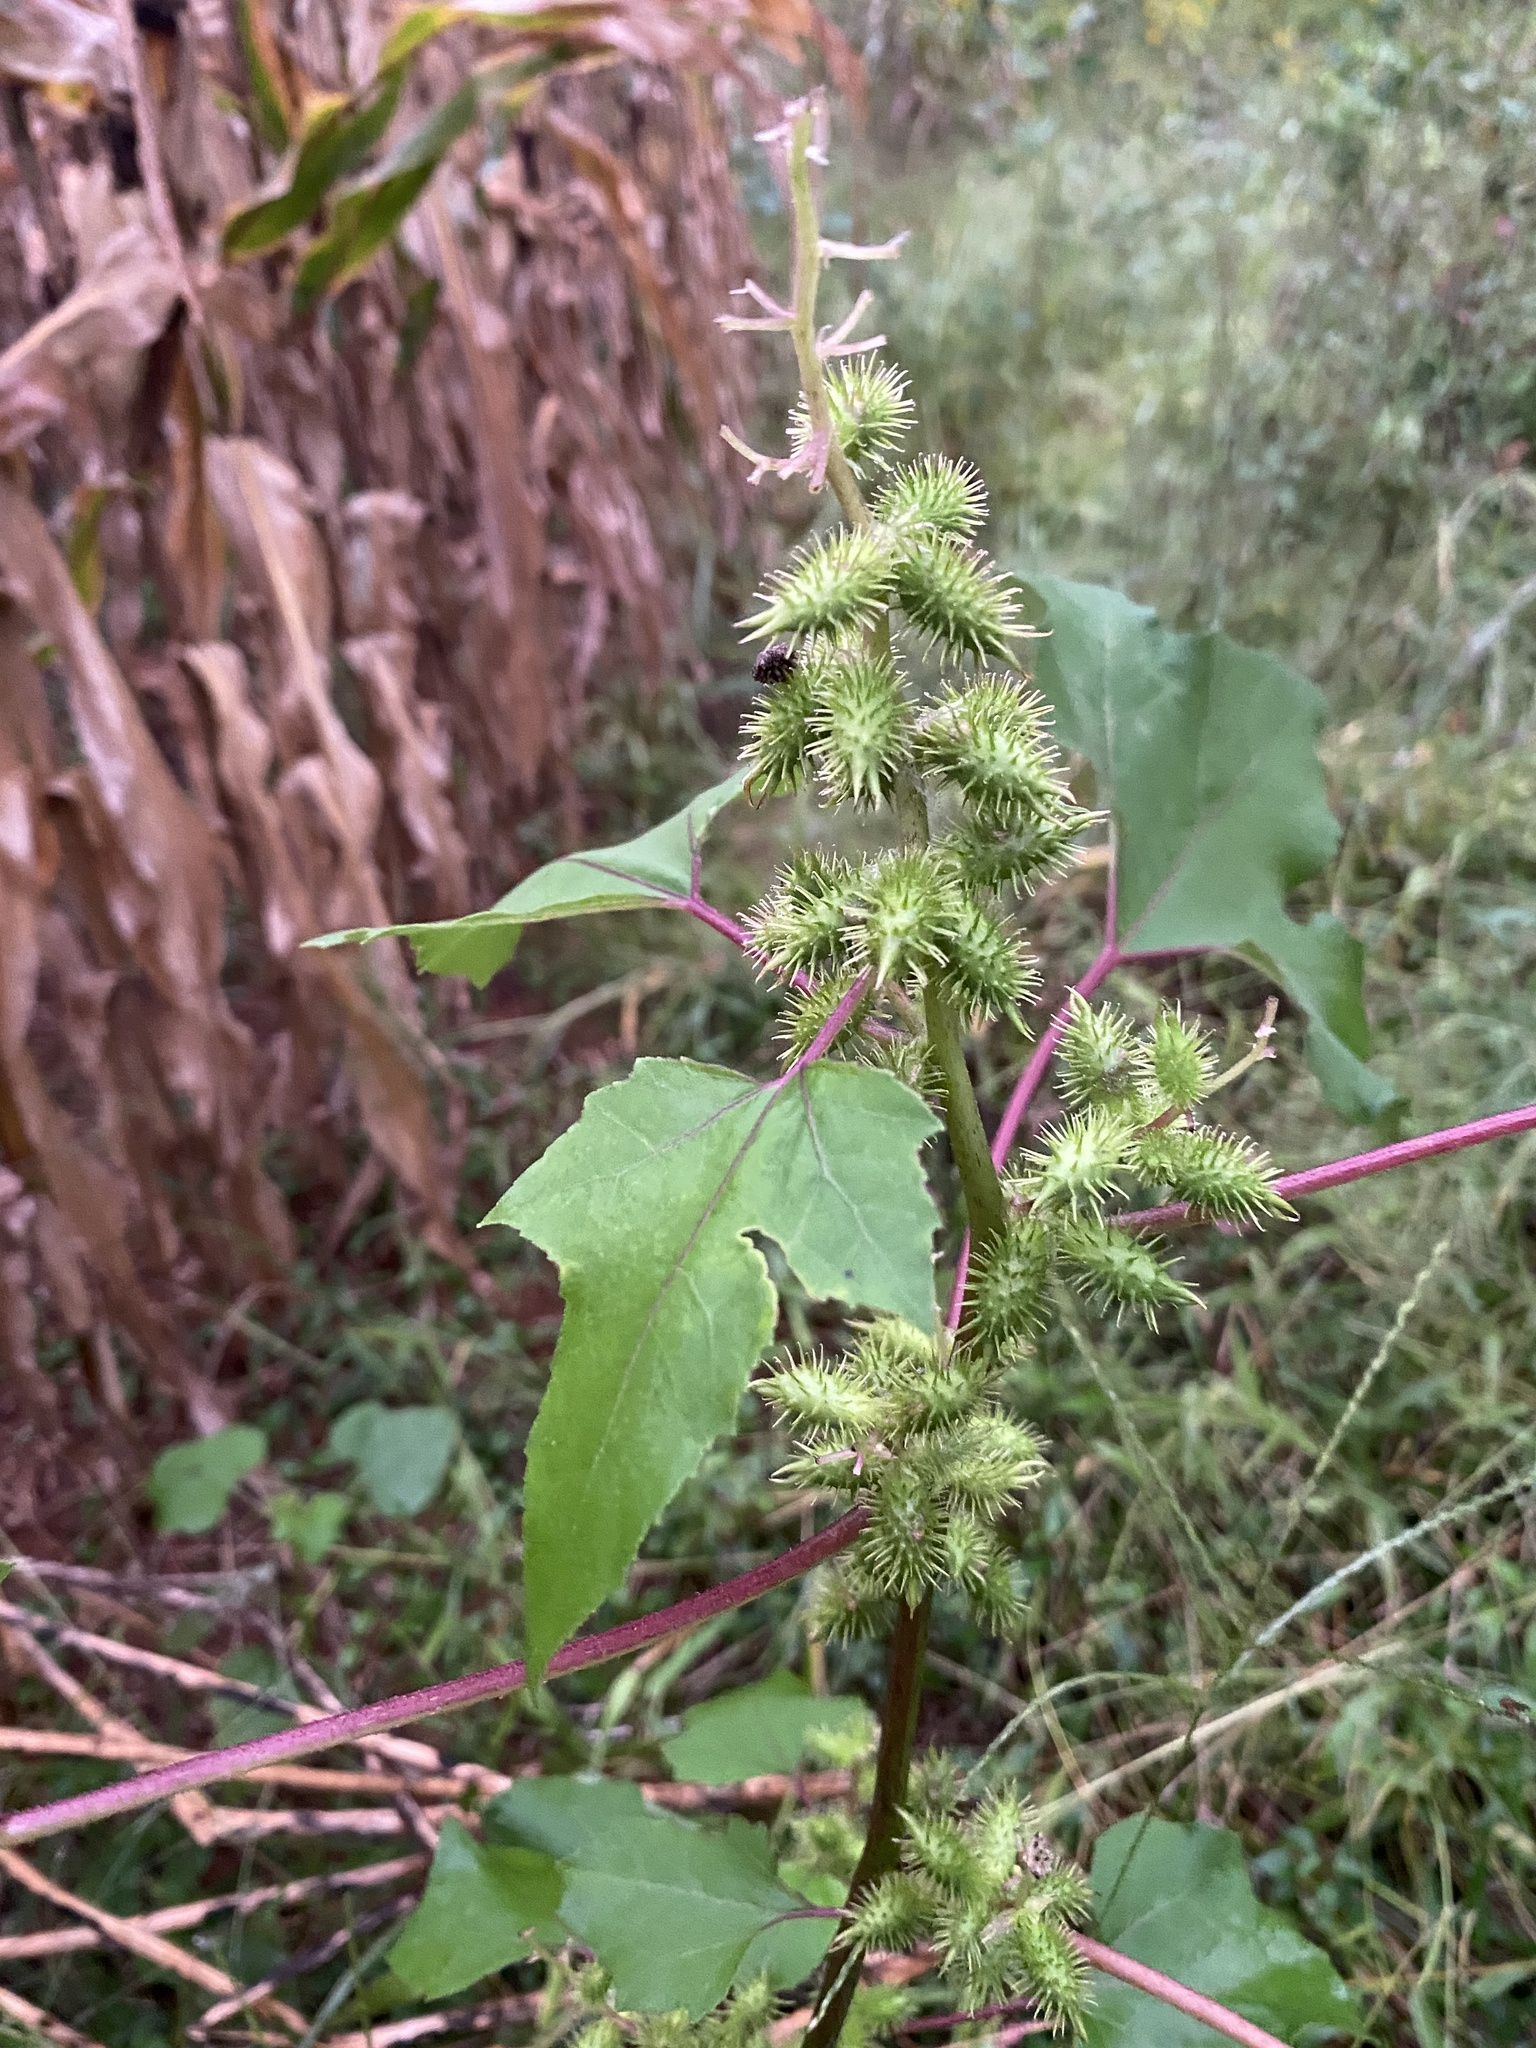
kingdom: Plantae
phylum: Tracheophyta
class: Magnoliopsida
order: Asterales
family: Asteraceae
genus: Xanthium
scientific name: Xanthium orientale
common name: Californian burr
